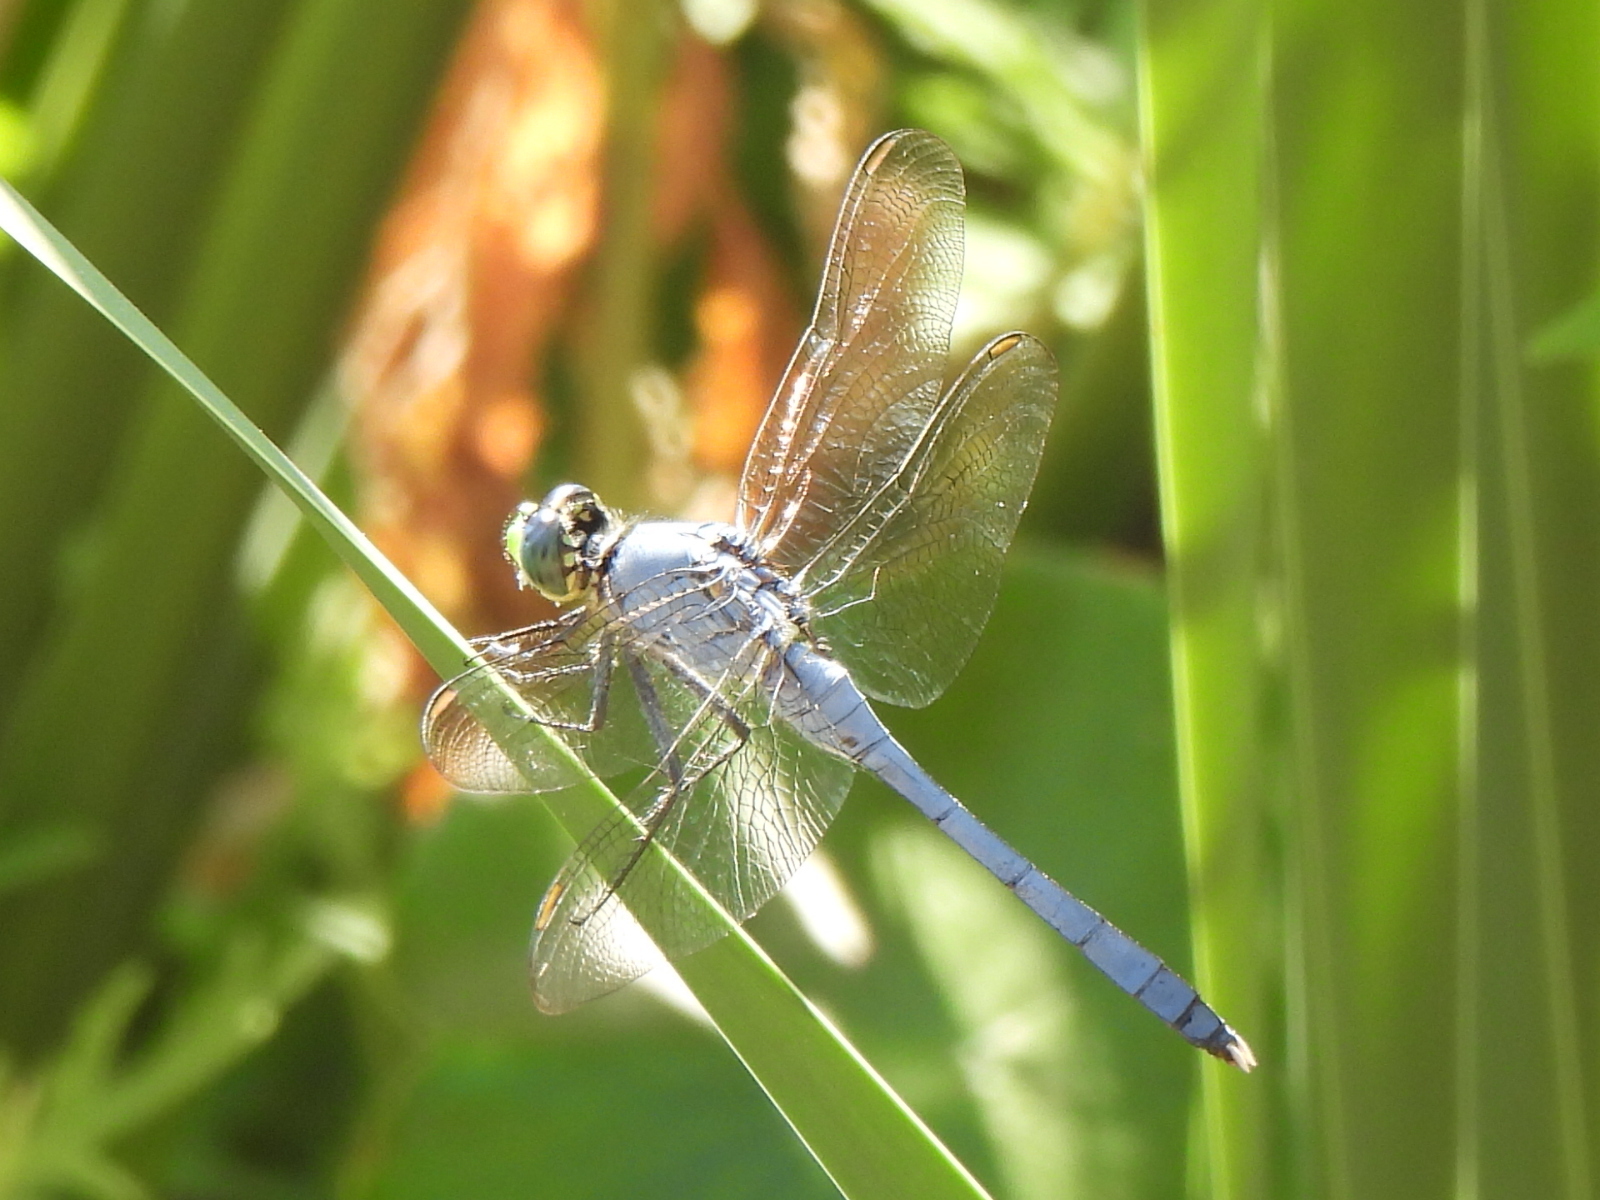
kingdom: Animalia
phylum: Arthropoda
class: Insecta
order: Odonata
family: Libellulidae
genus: Erythemis
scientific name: Erythemis simplicicollis
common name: Eastern pondhawk
